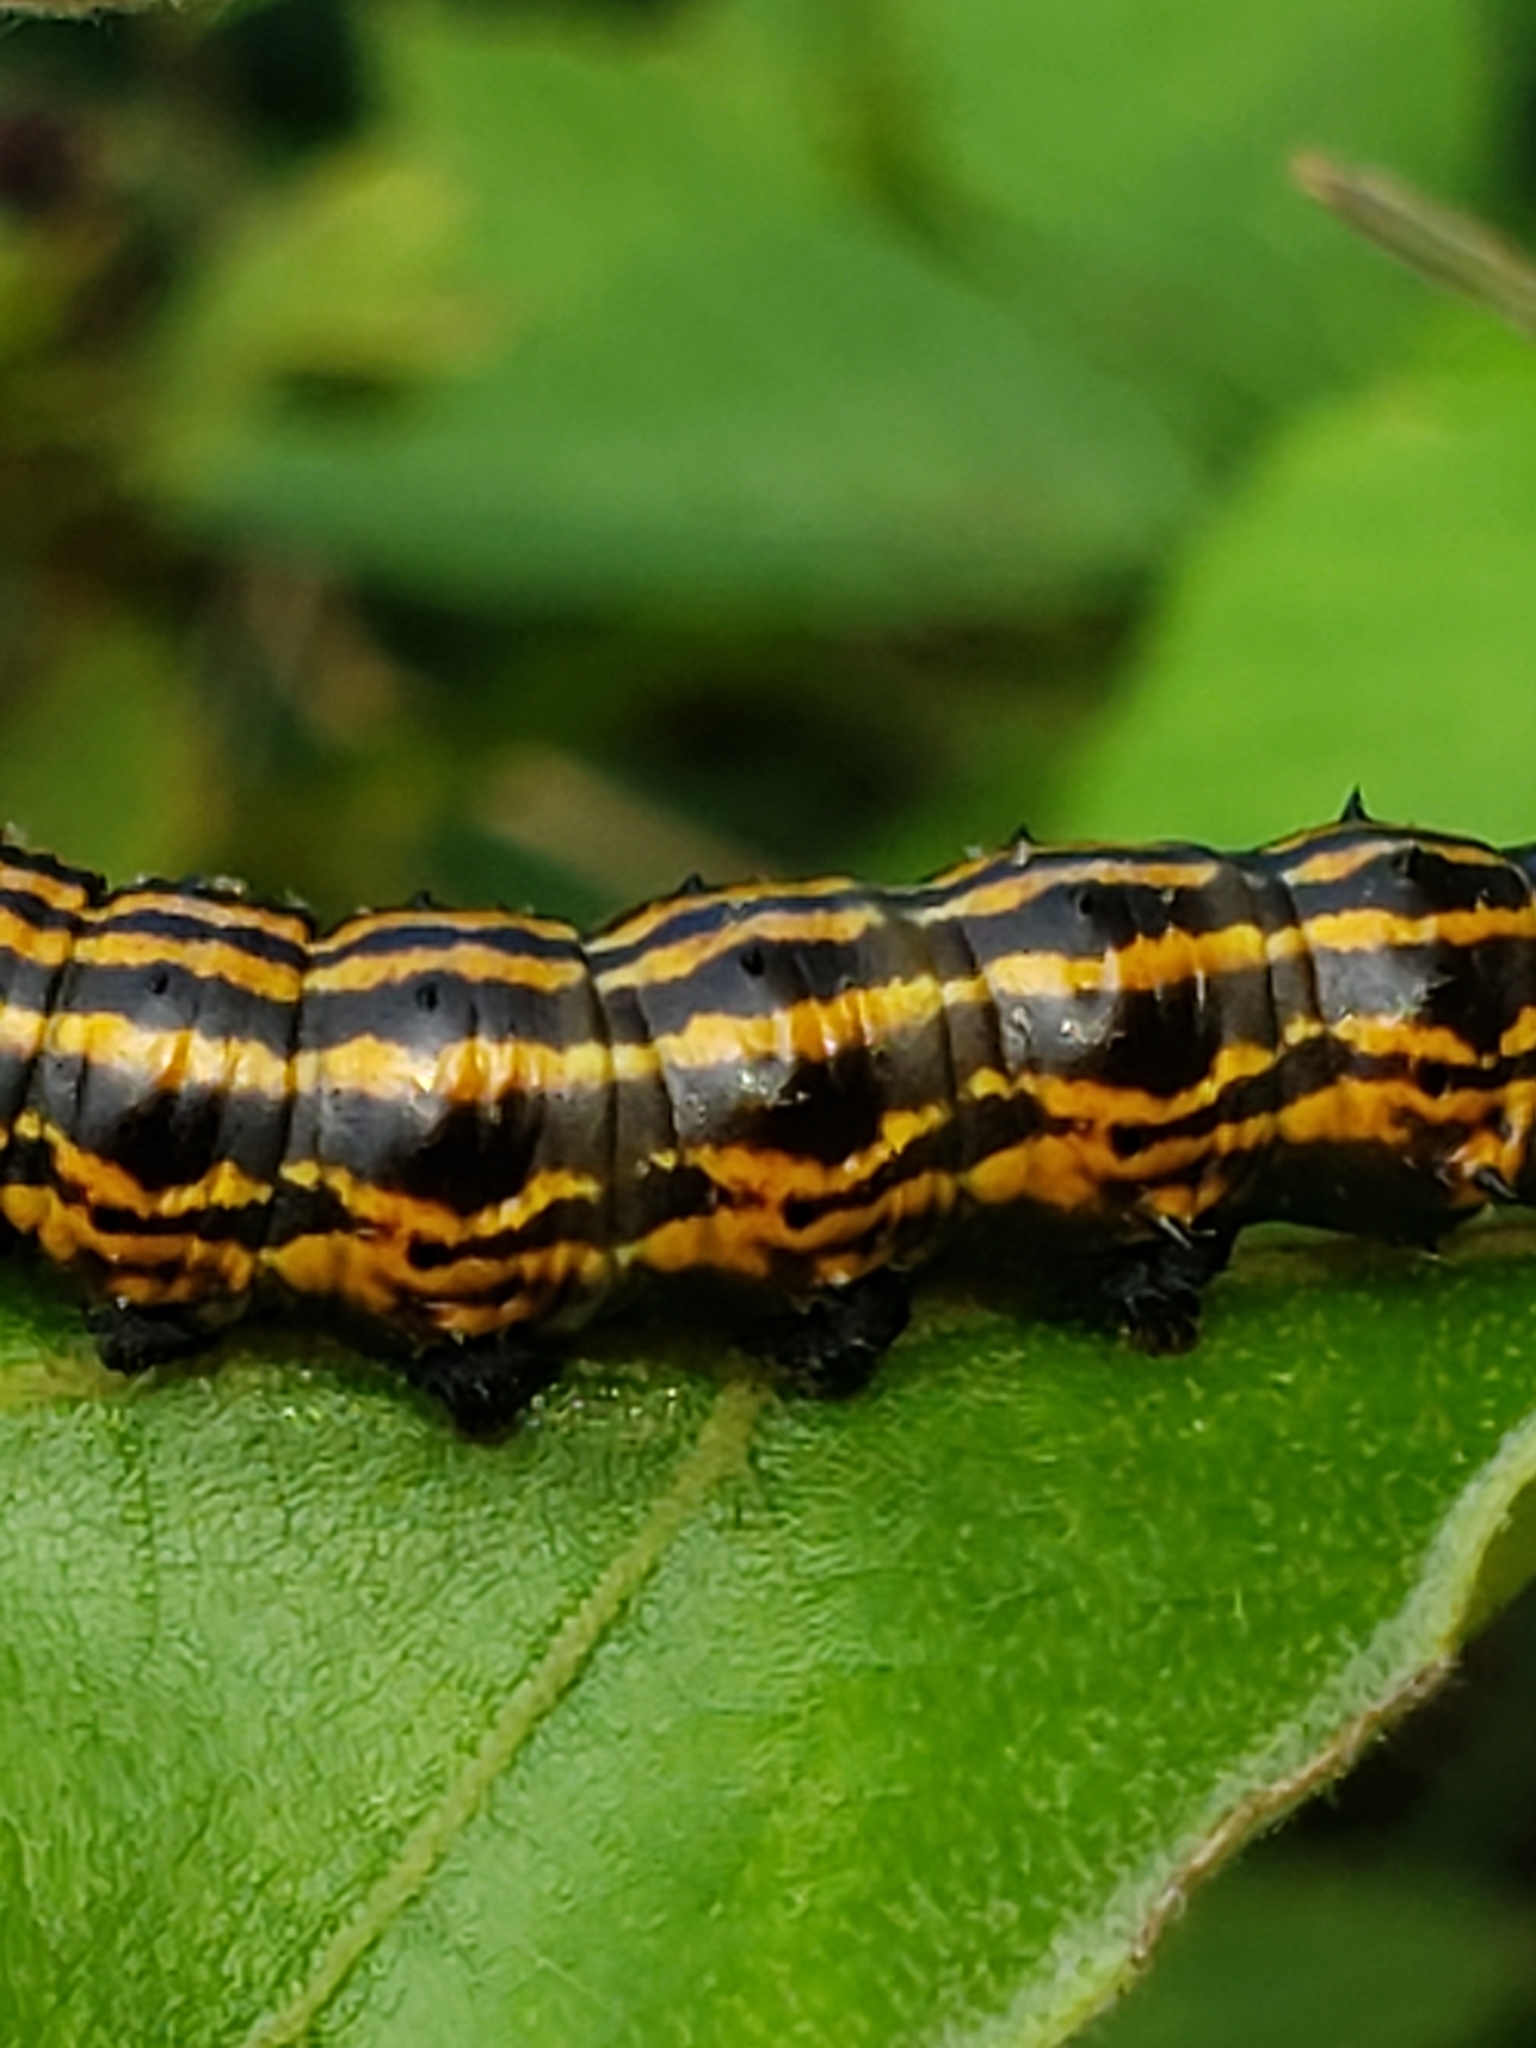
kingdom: Animalia
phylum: Arthropoda
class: Insecta
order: Lepidoptera
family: Saturniidae
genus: Anisota
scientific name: Anisota senatoria
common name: Orange-striped oakworm moth
